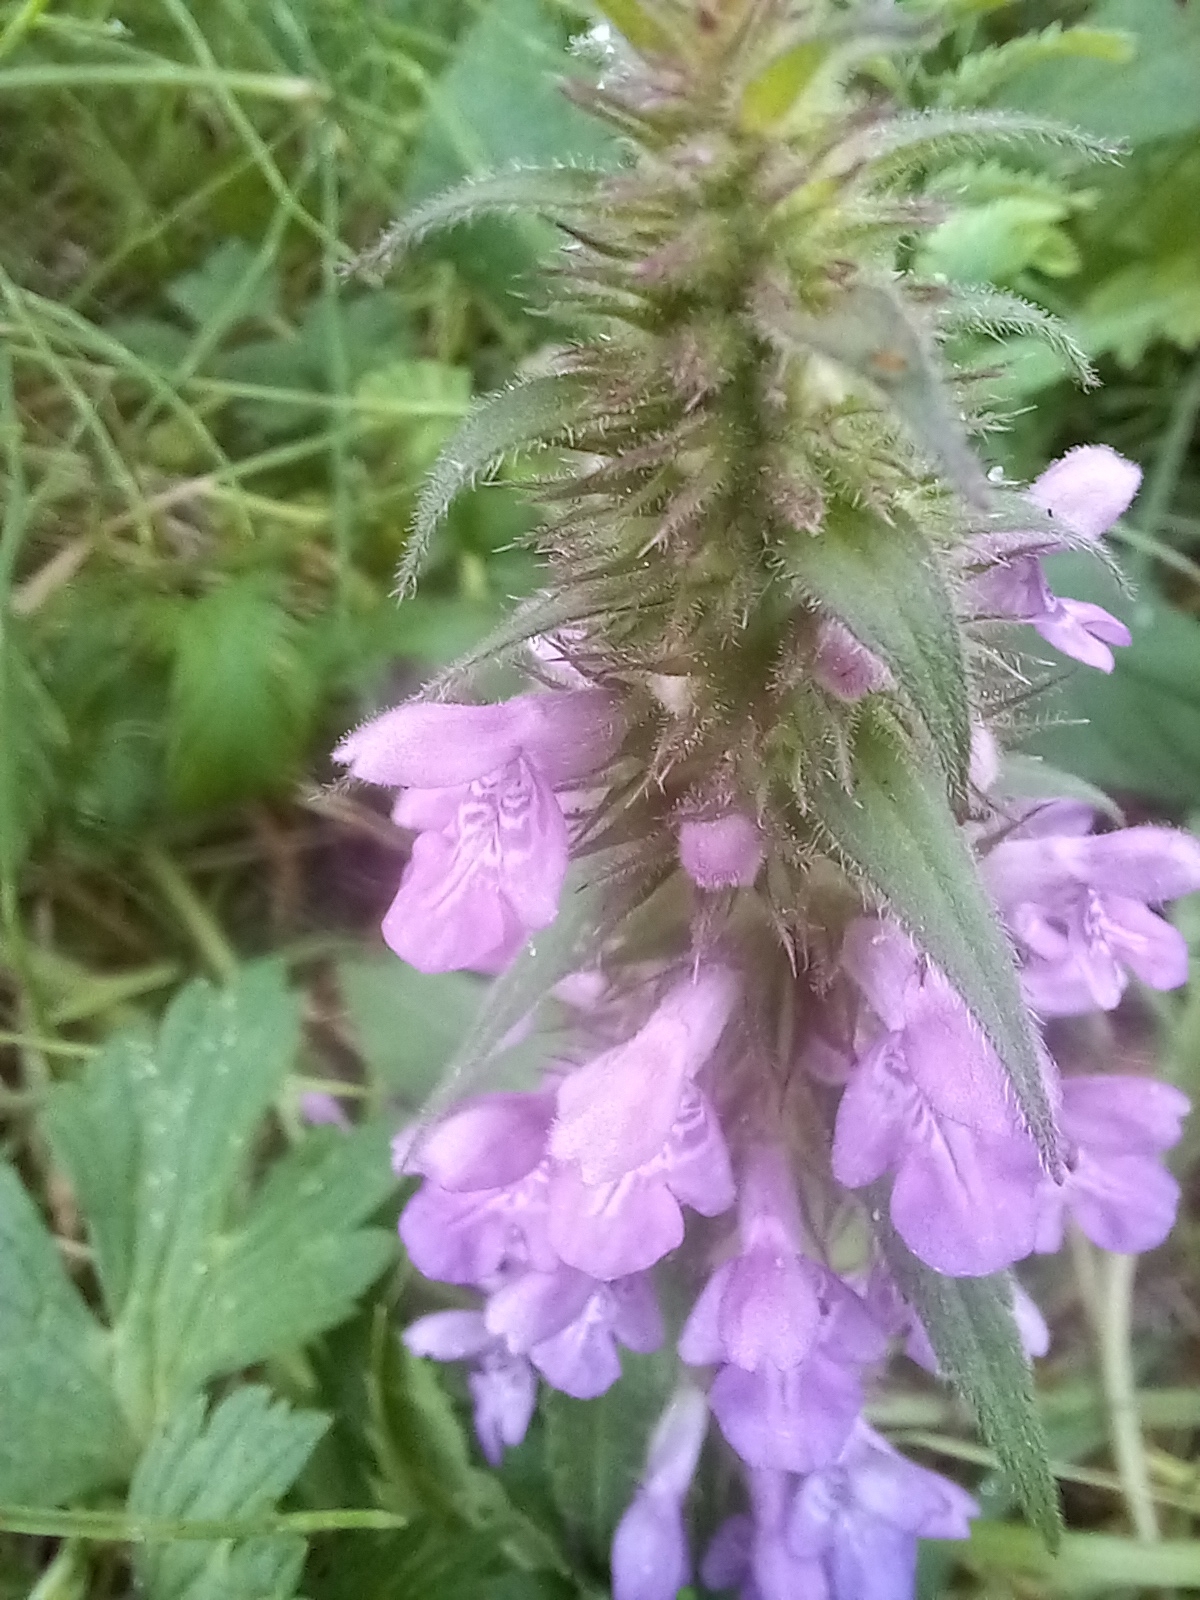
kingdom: Plantae
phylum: Tracheophyta
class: Magnoliopsida
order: Lamiales
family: Lamiaceae
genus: Stachys
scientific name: Stachys palustris
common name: Marsh woundwort
